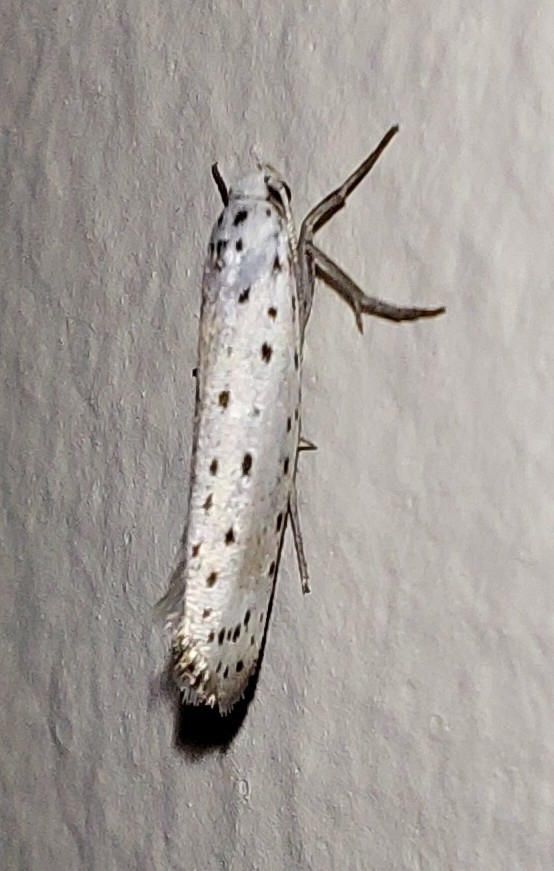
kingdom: Animalia
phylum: Arthropoda
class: Insecta
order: Lepidoptera
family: Yponomeutidae
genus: Yponomeuta
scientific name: Yponomeuta
